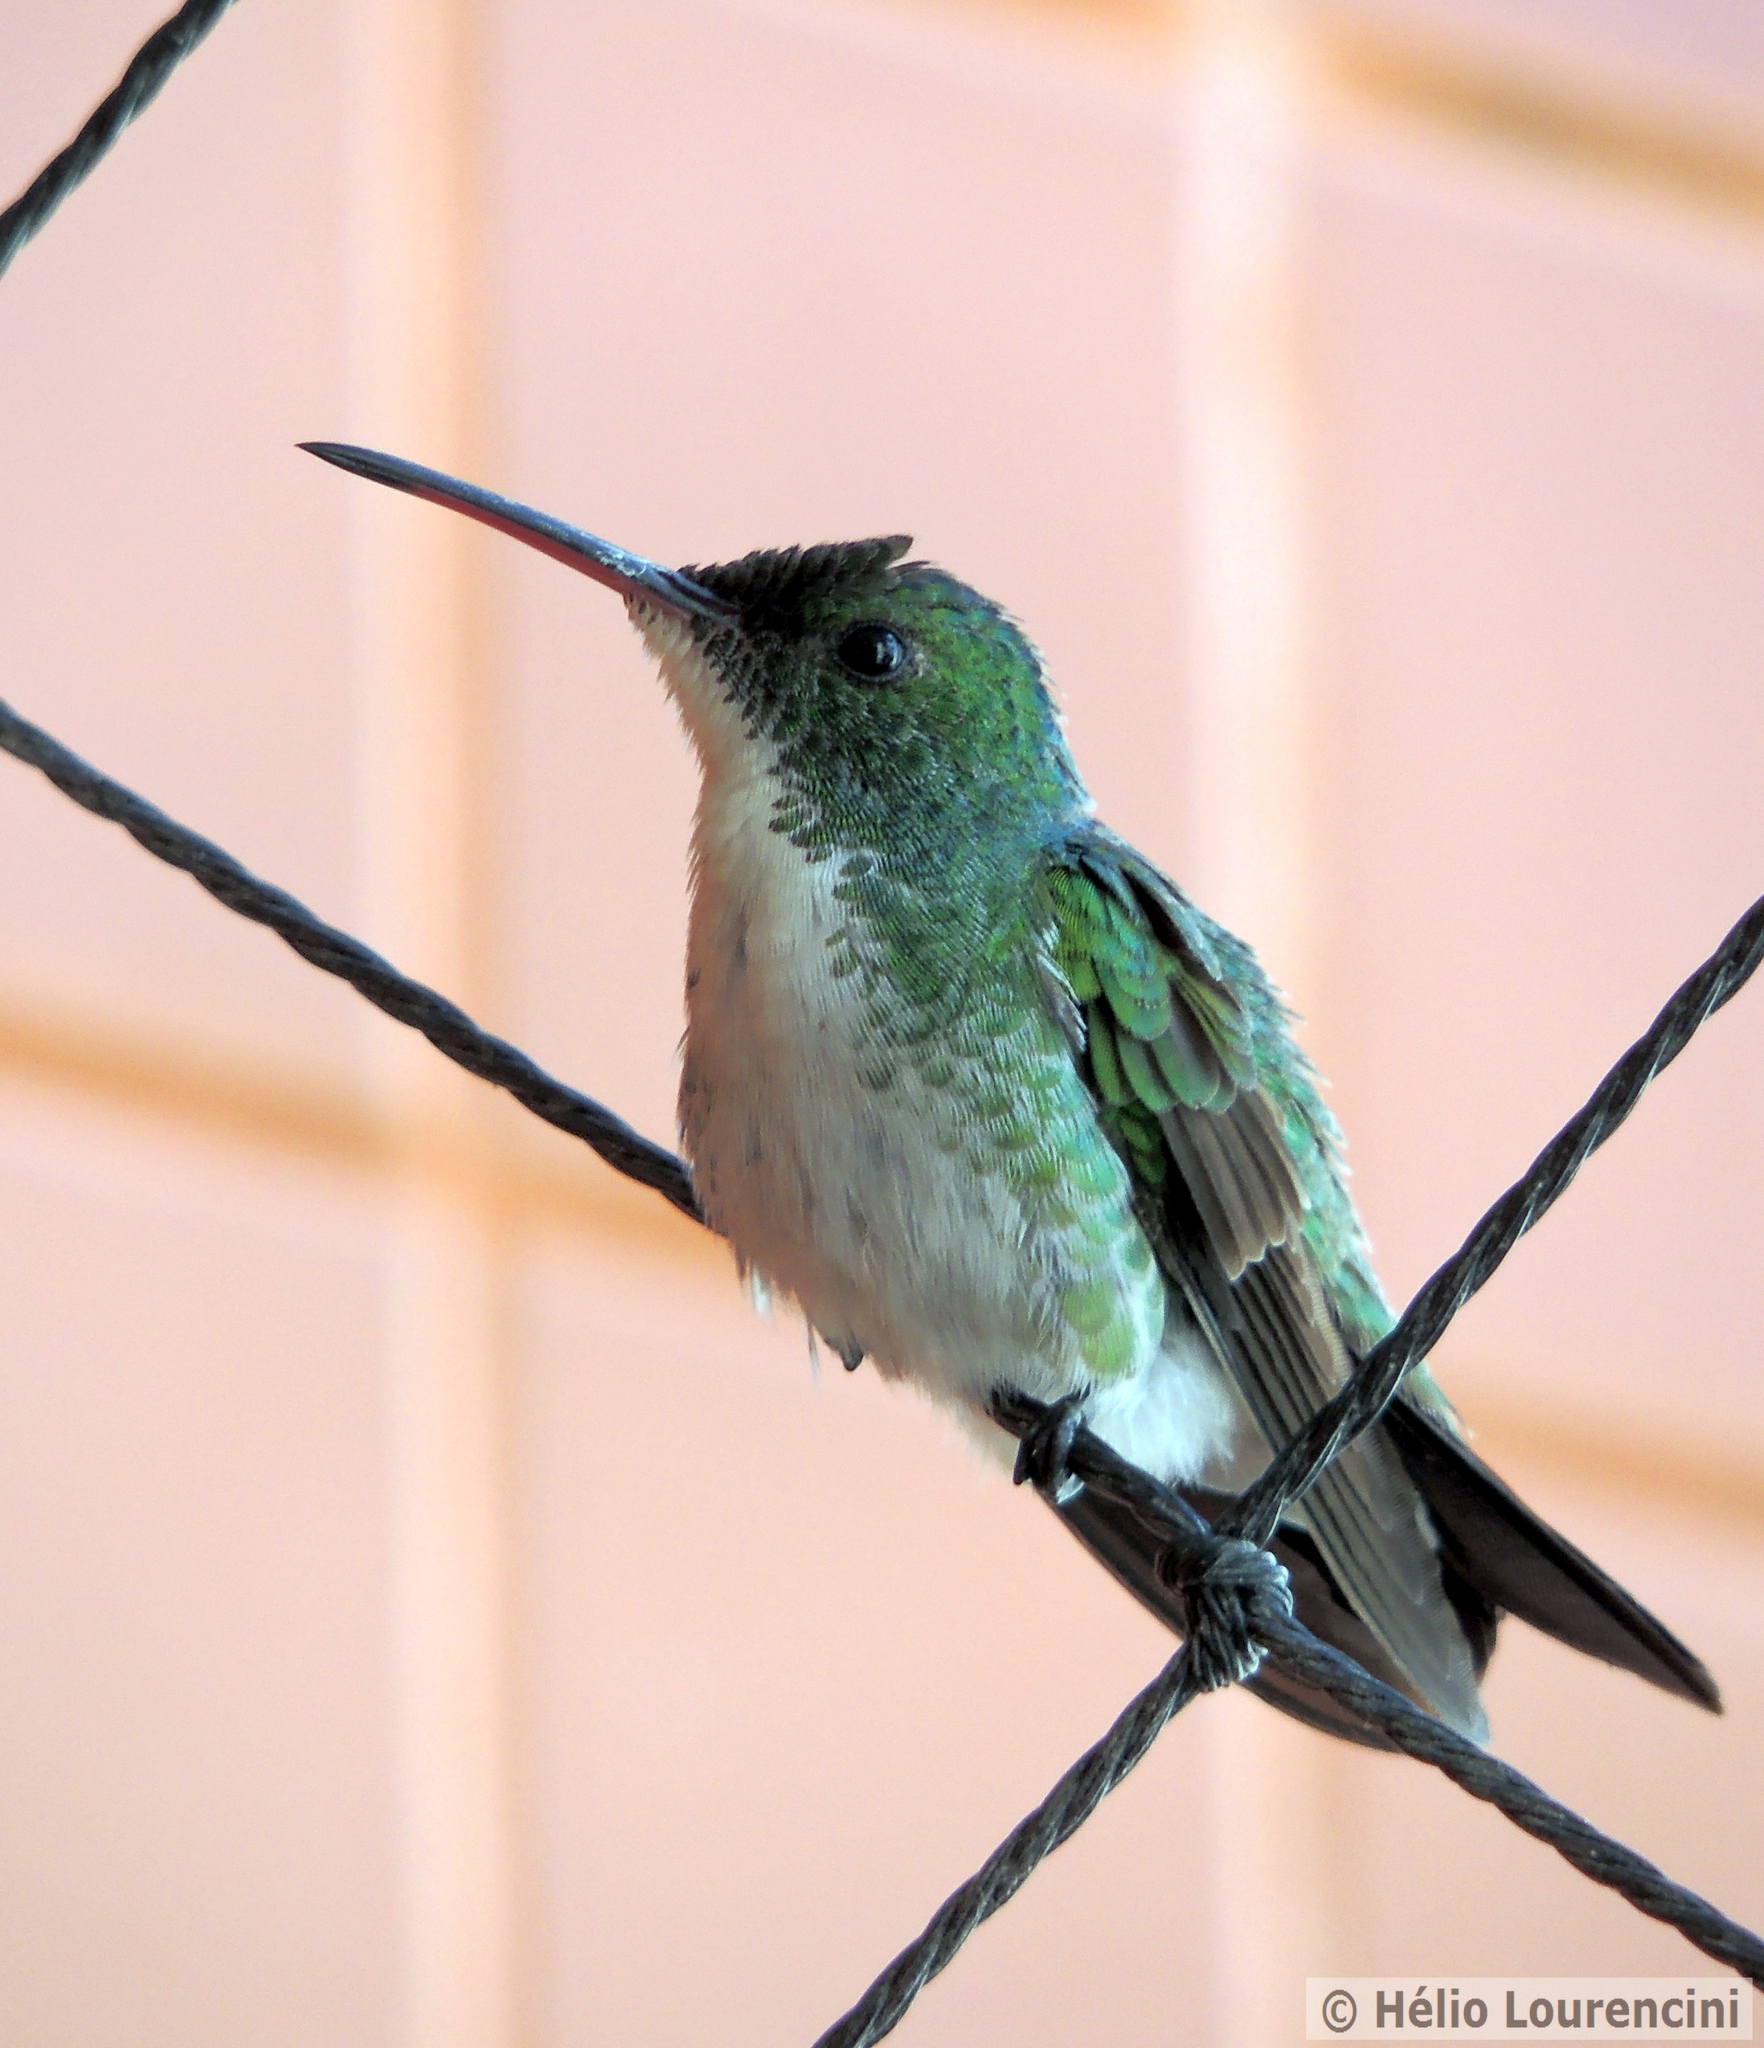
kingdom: Animalia
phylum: Chordata
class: Aves
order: Apodiformes
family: Trochilidae
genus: Chrysuronia
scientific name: Chrysuronia leucogaster
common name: Plain-bellied emerald
